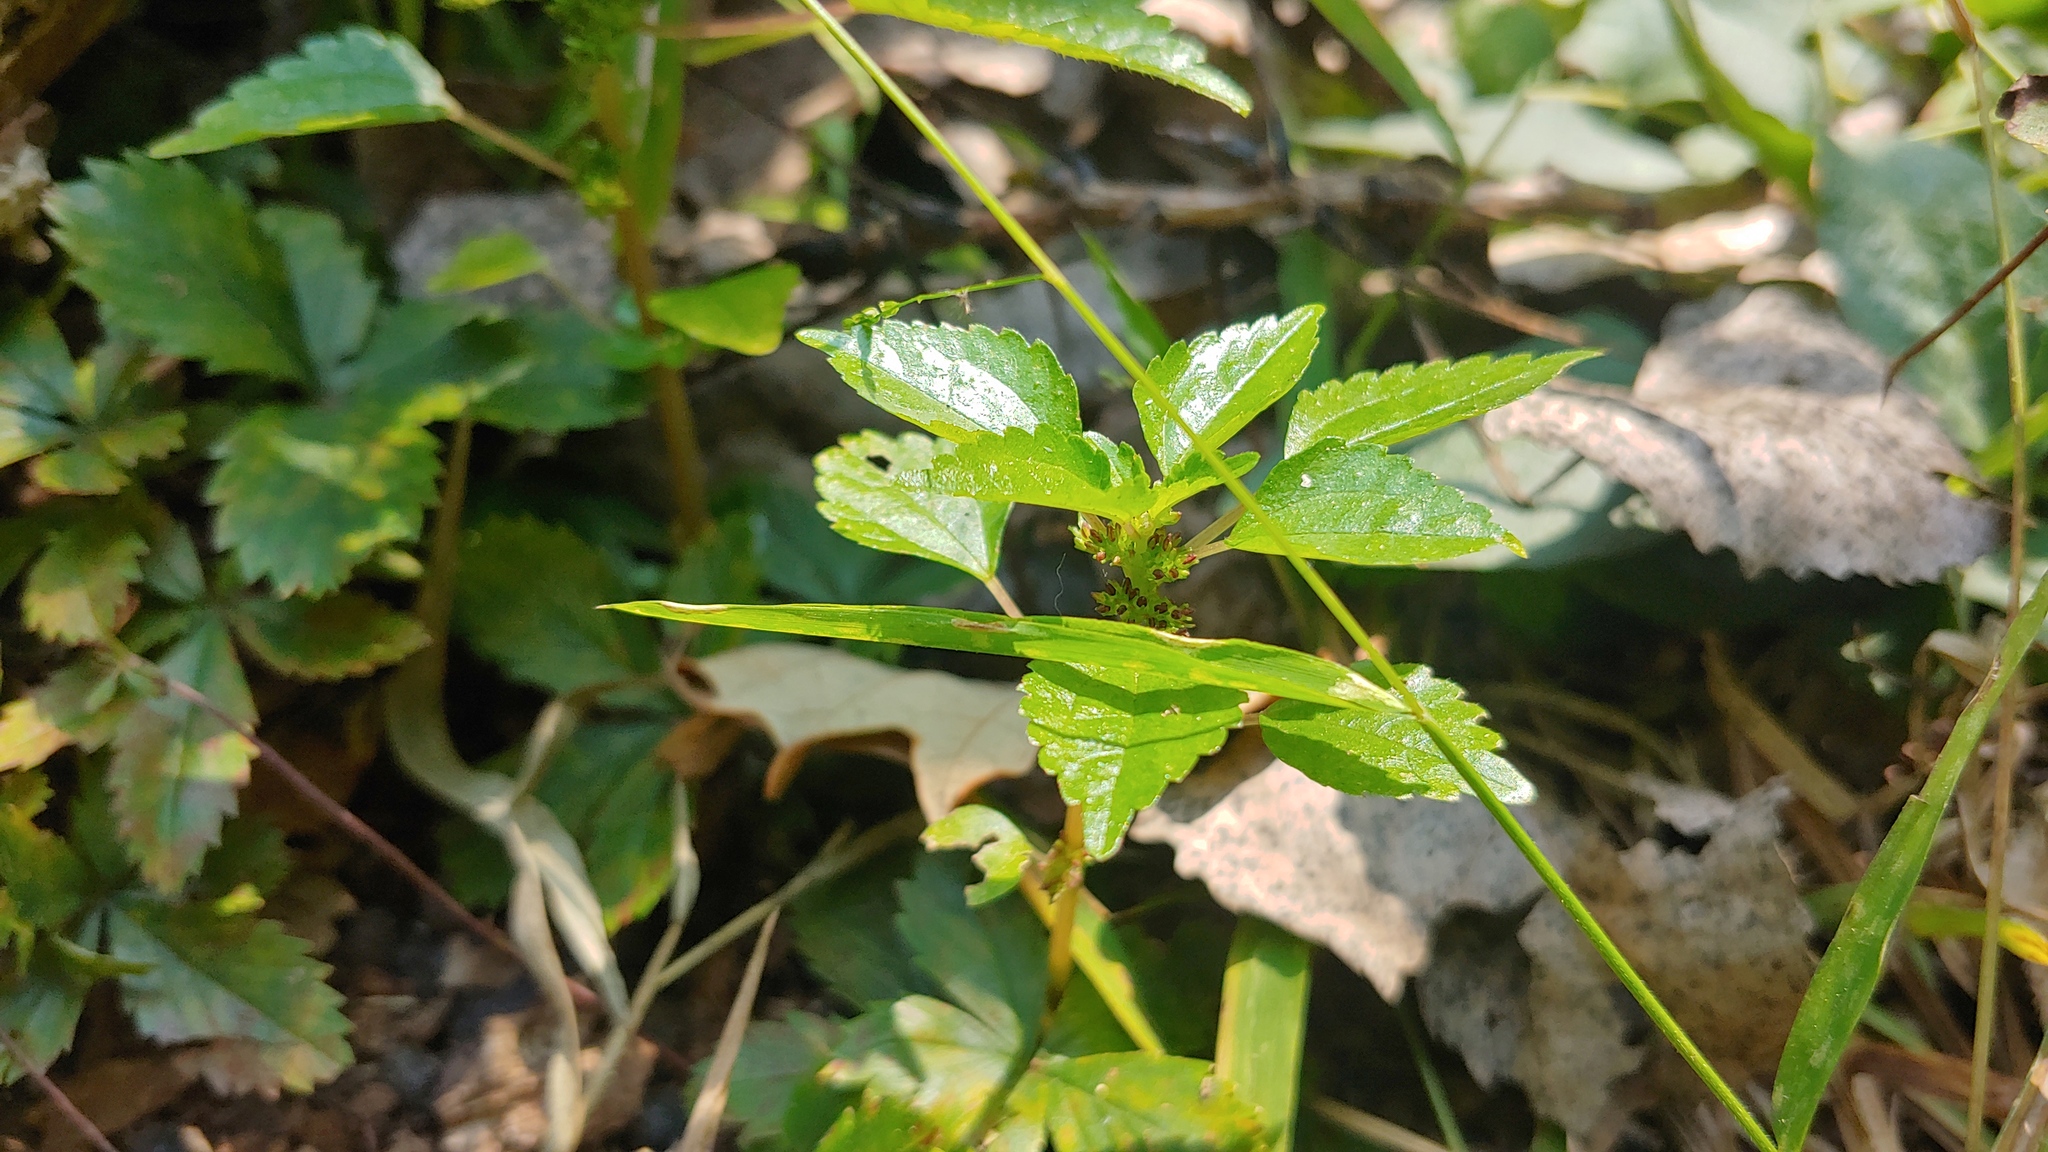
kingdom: Plantae
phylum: Tracheophyta
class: Magnoliopsida
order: Rosales
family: Urticaceae
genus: Pilea
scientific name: Pilea fontana
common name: Clearweed
